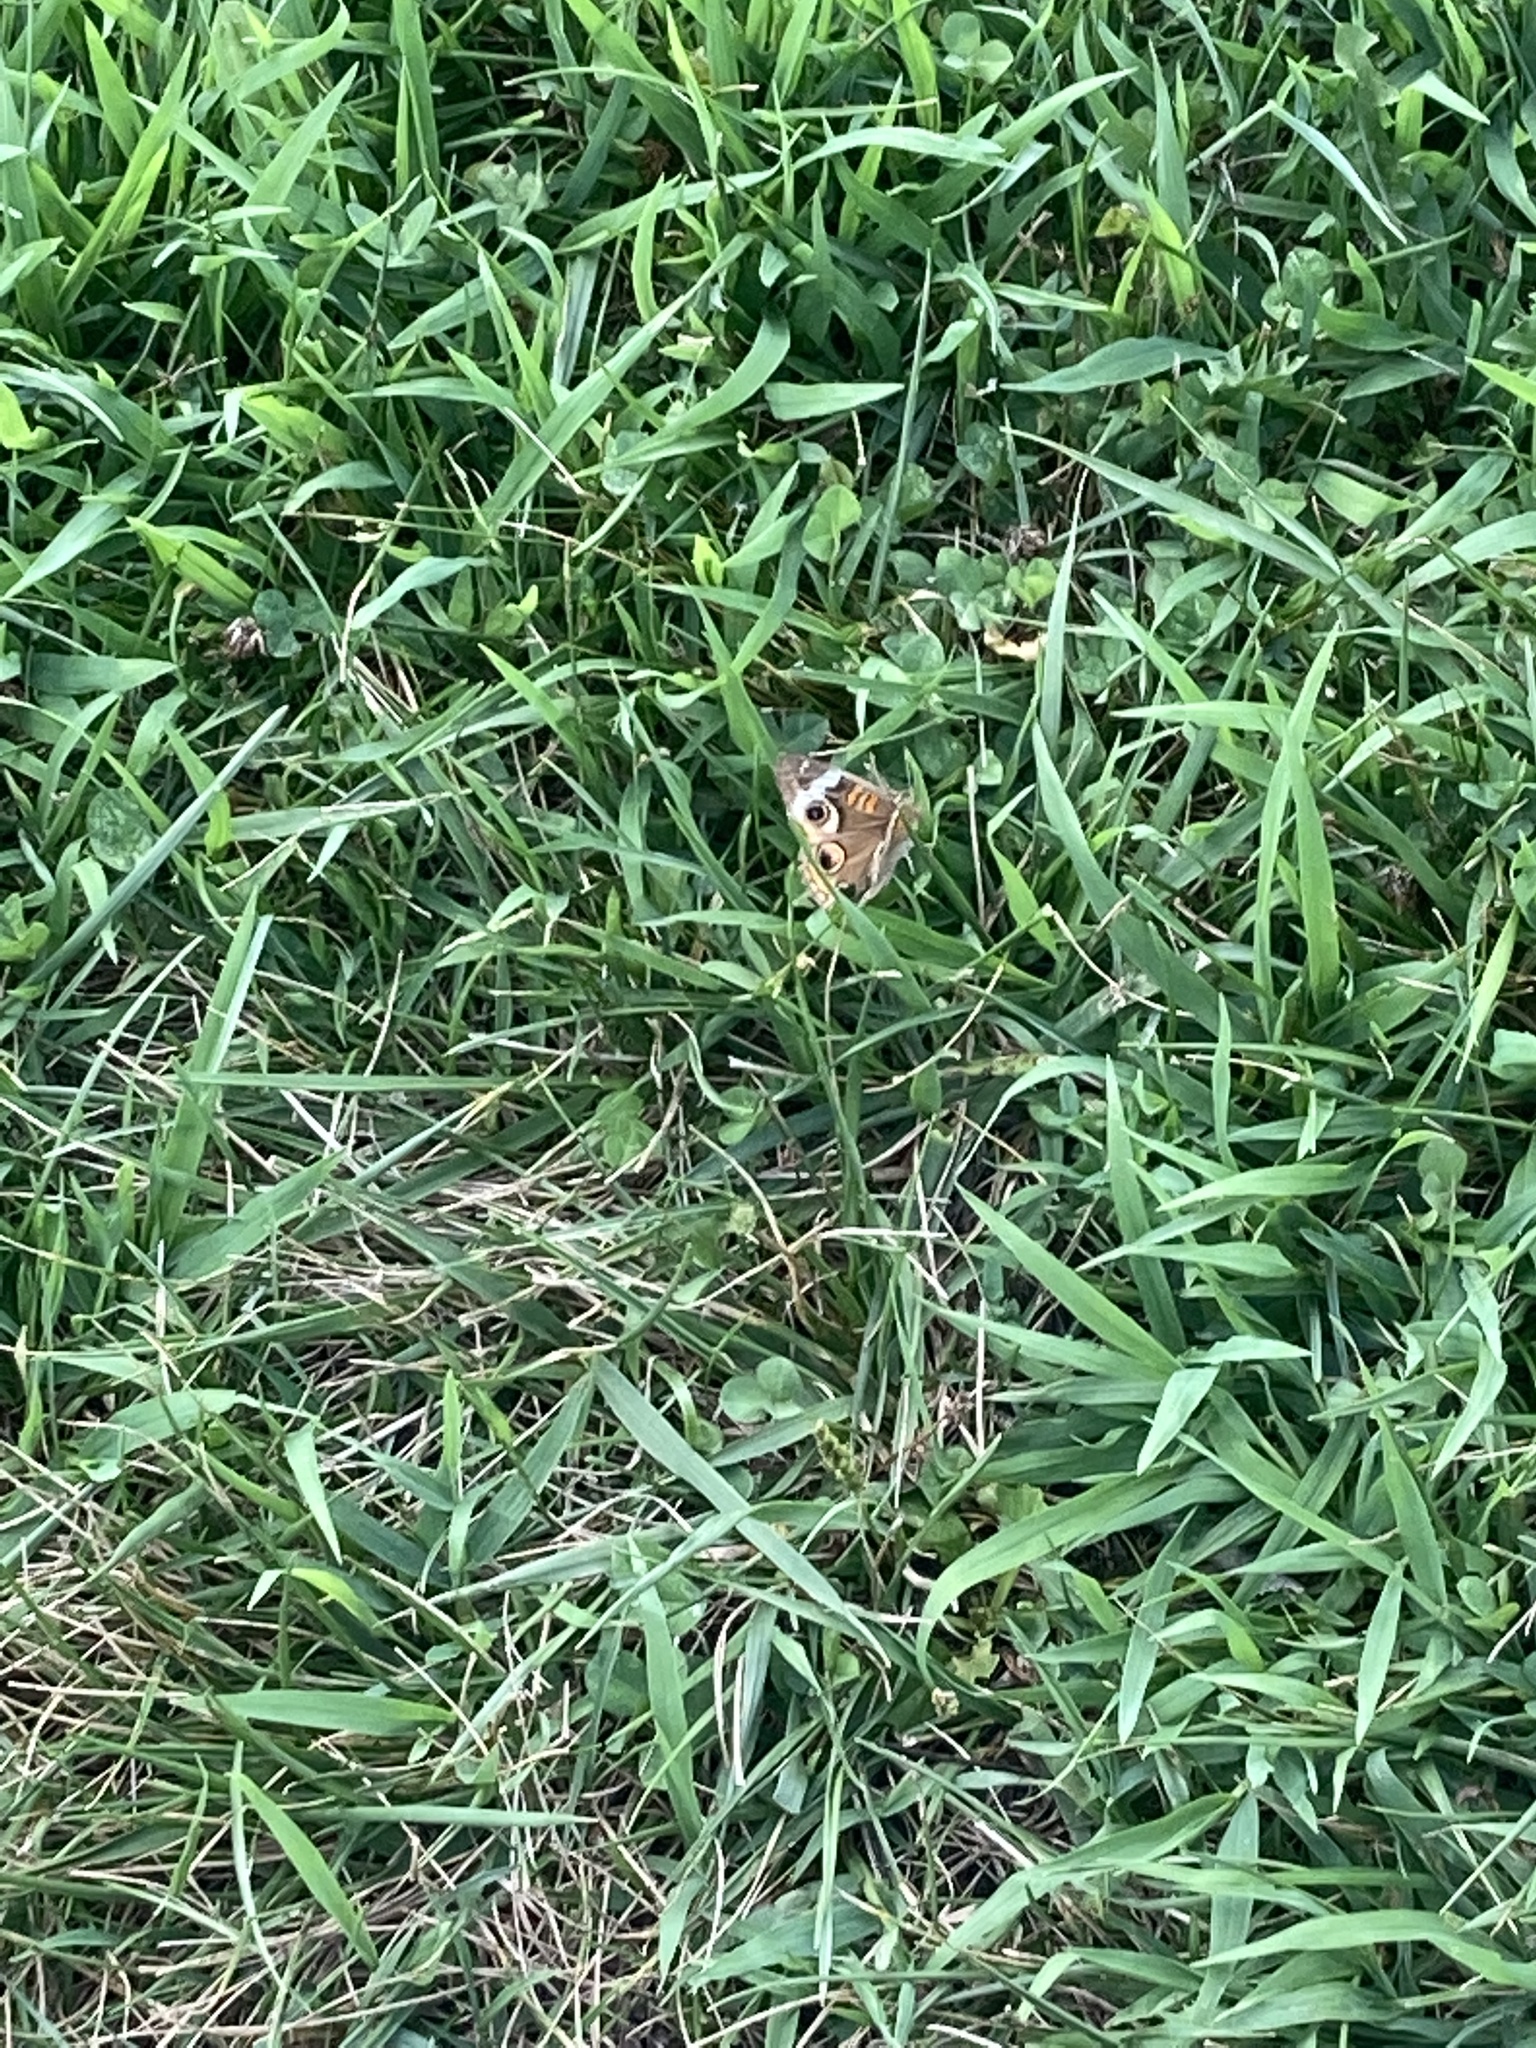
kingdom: Animalia
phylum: Arthropoda
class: Insecta
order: Lepidoptera
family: Nymphalidae
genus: Junonia
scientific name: Junonia coenia
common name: Common buckeye
